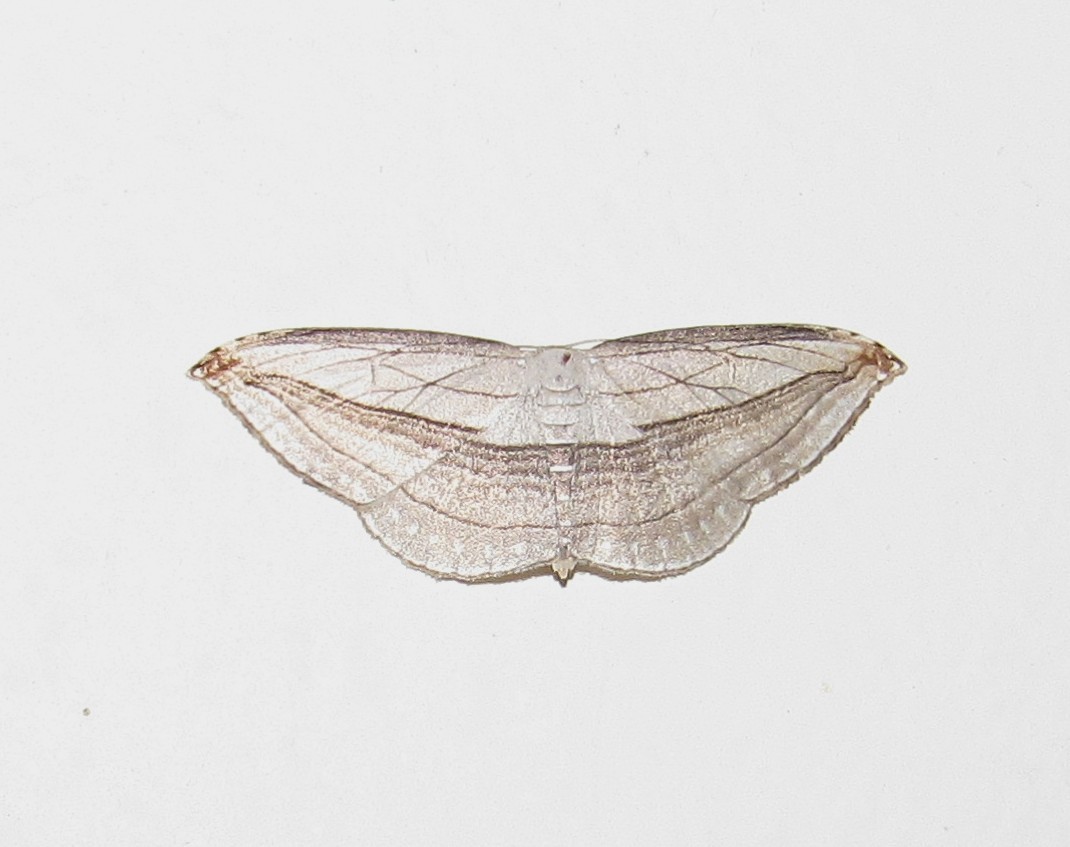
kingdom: Animalia
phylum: Arthropoda
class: Insecta
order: Lepidoptera
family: Geometridae
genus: Arcobara
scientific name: Arcobara tergeminaria
